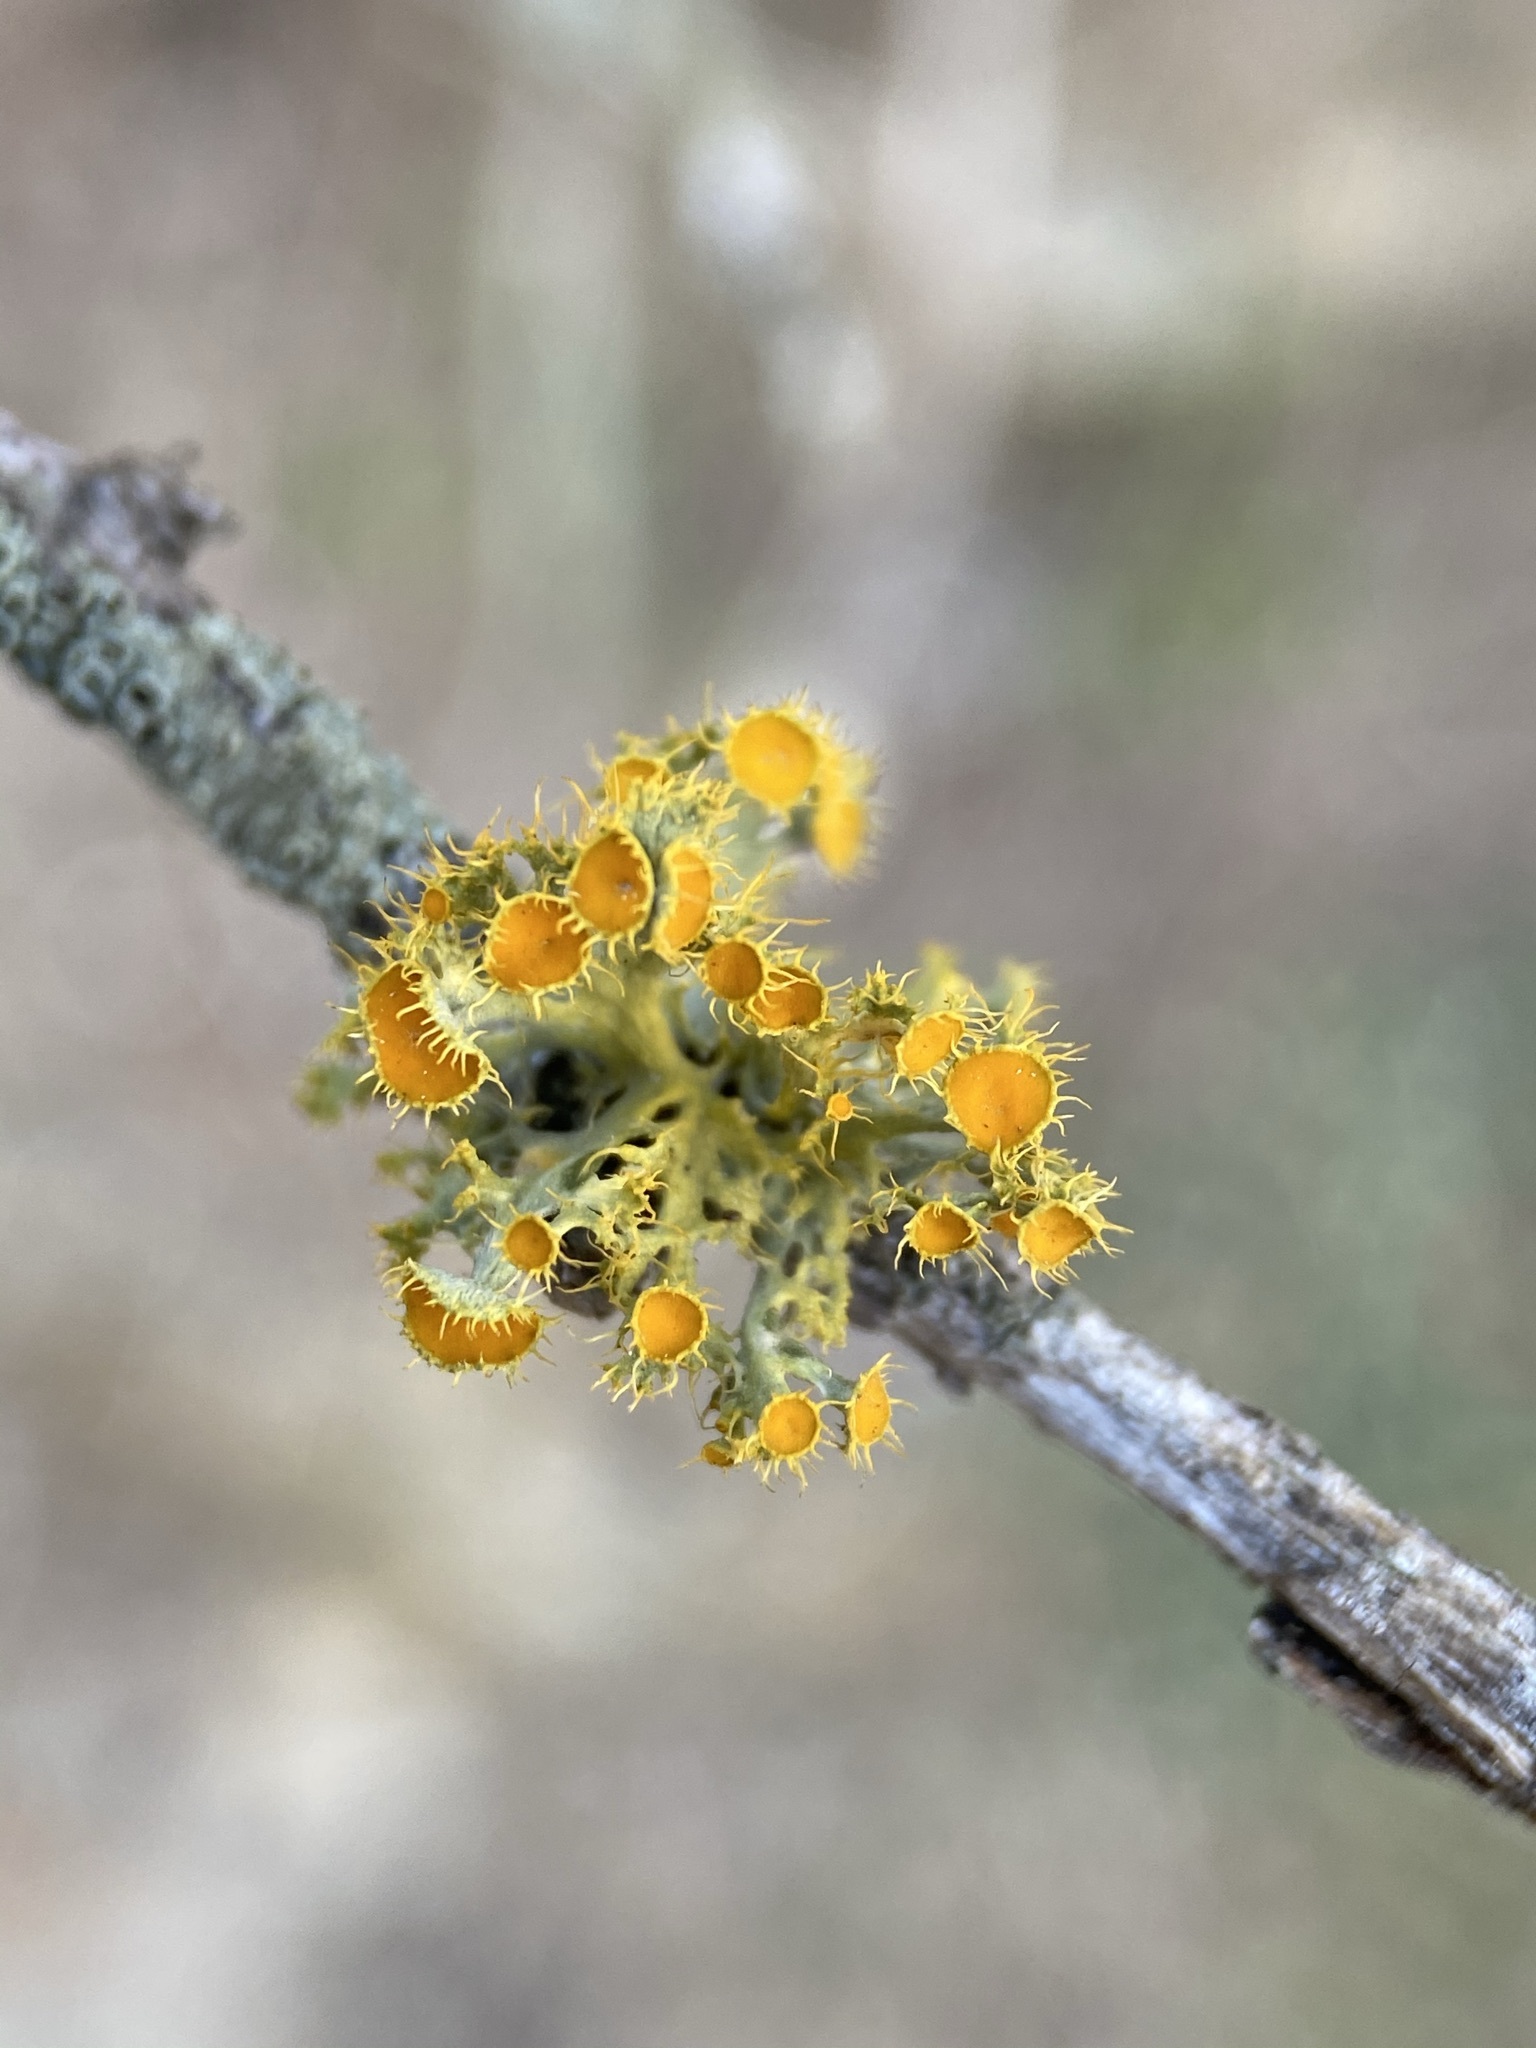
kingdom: Fungi
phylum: Ascomycota
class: Lecanoromycetes
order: Teloschistales
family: Teloschistaceae
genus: Niorma
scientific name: Niorma chrysophthalma
